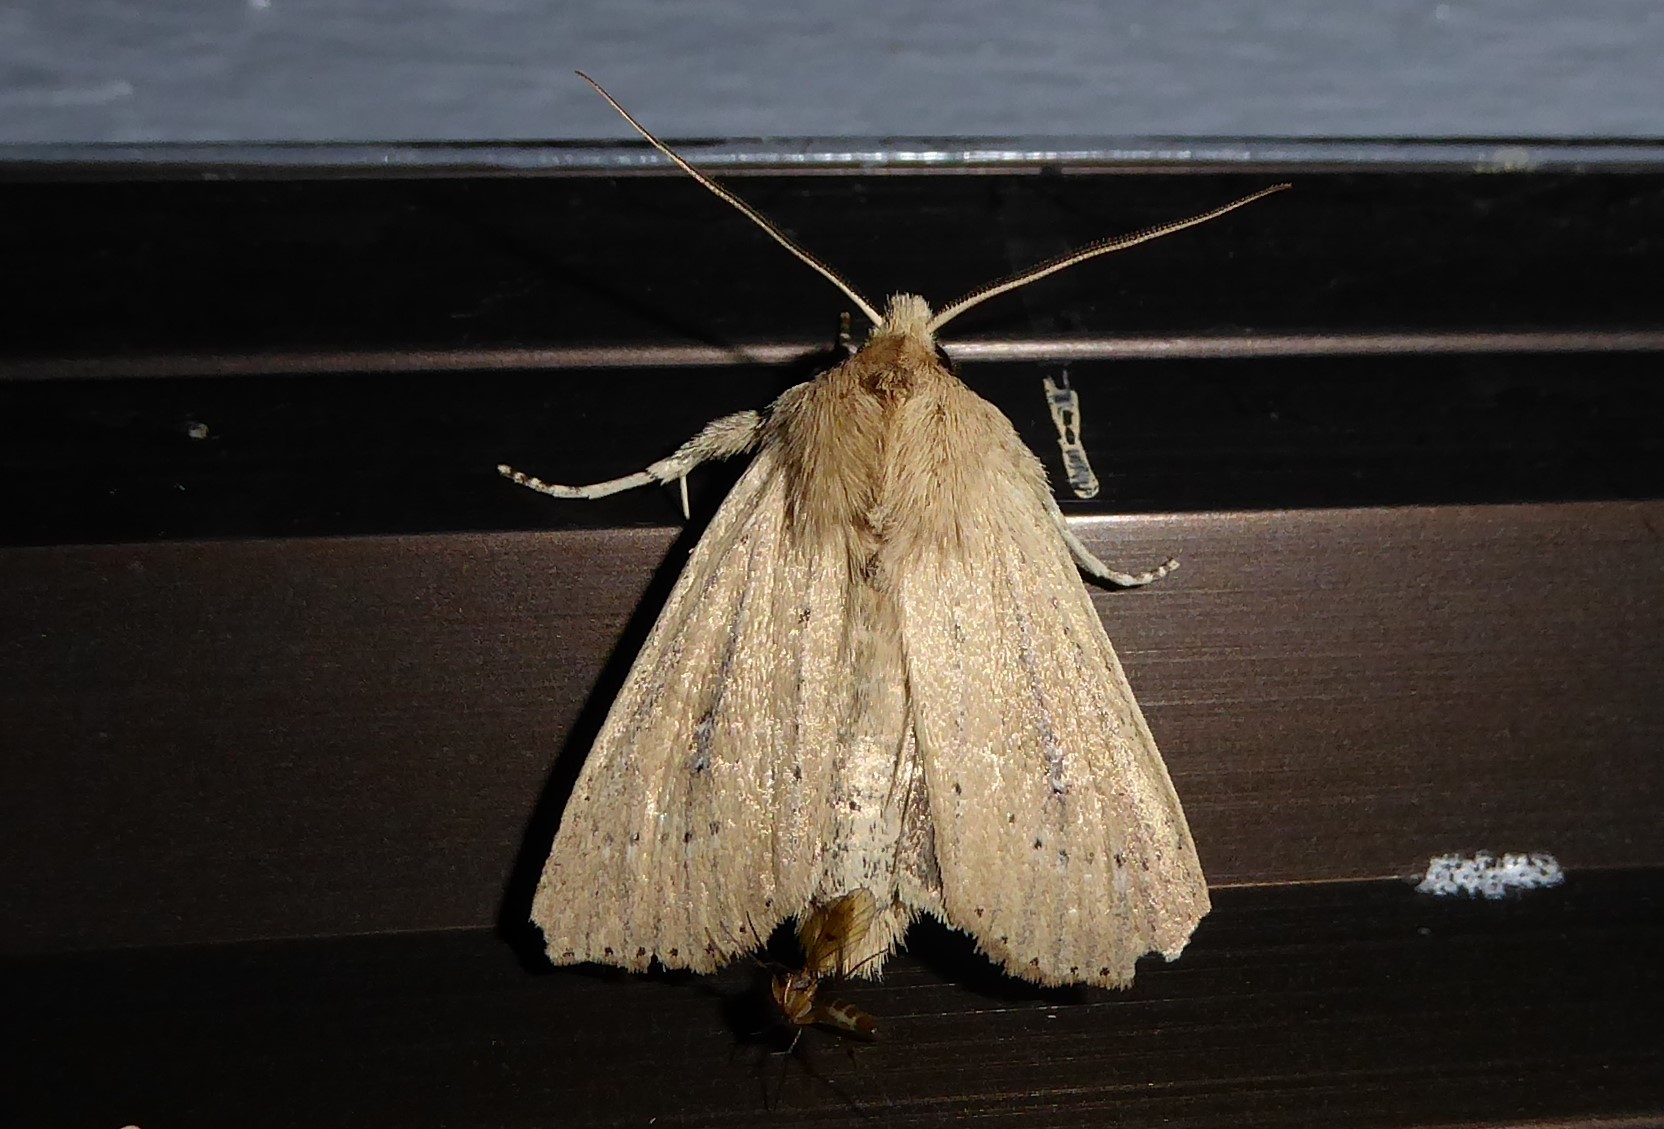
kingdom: Animalia
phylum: Arthropoda
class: Insecta
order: Lepidoptera
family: Noctuidae
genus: Ichneutica
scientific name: Ichneutica
